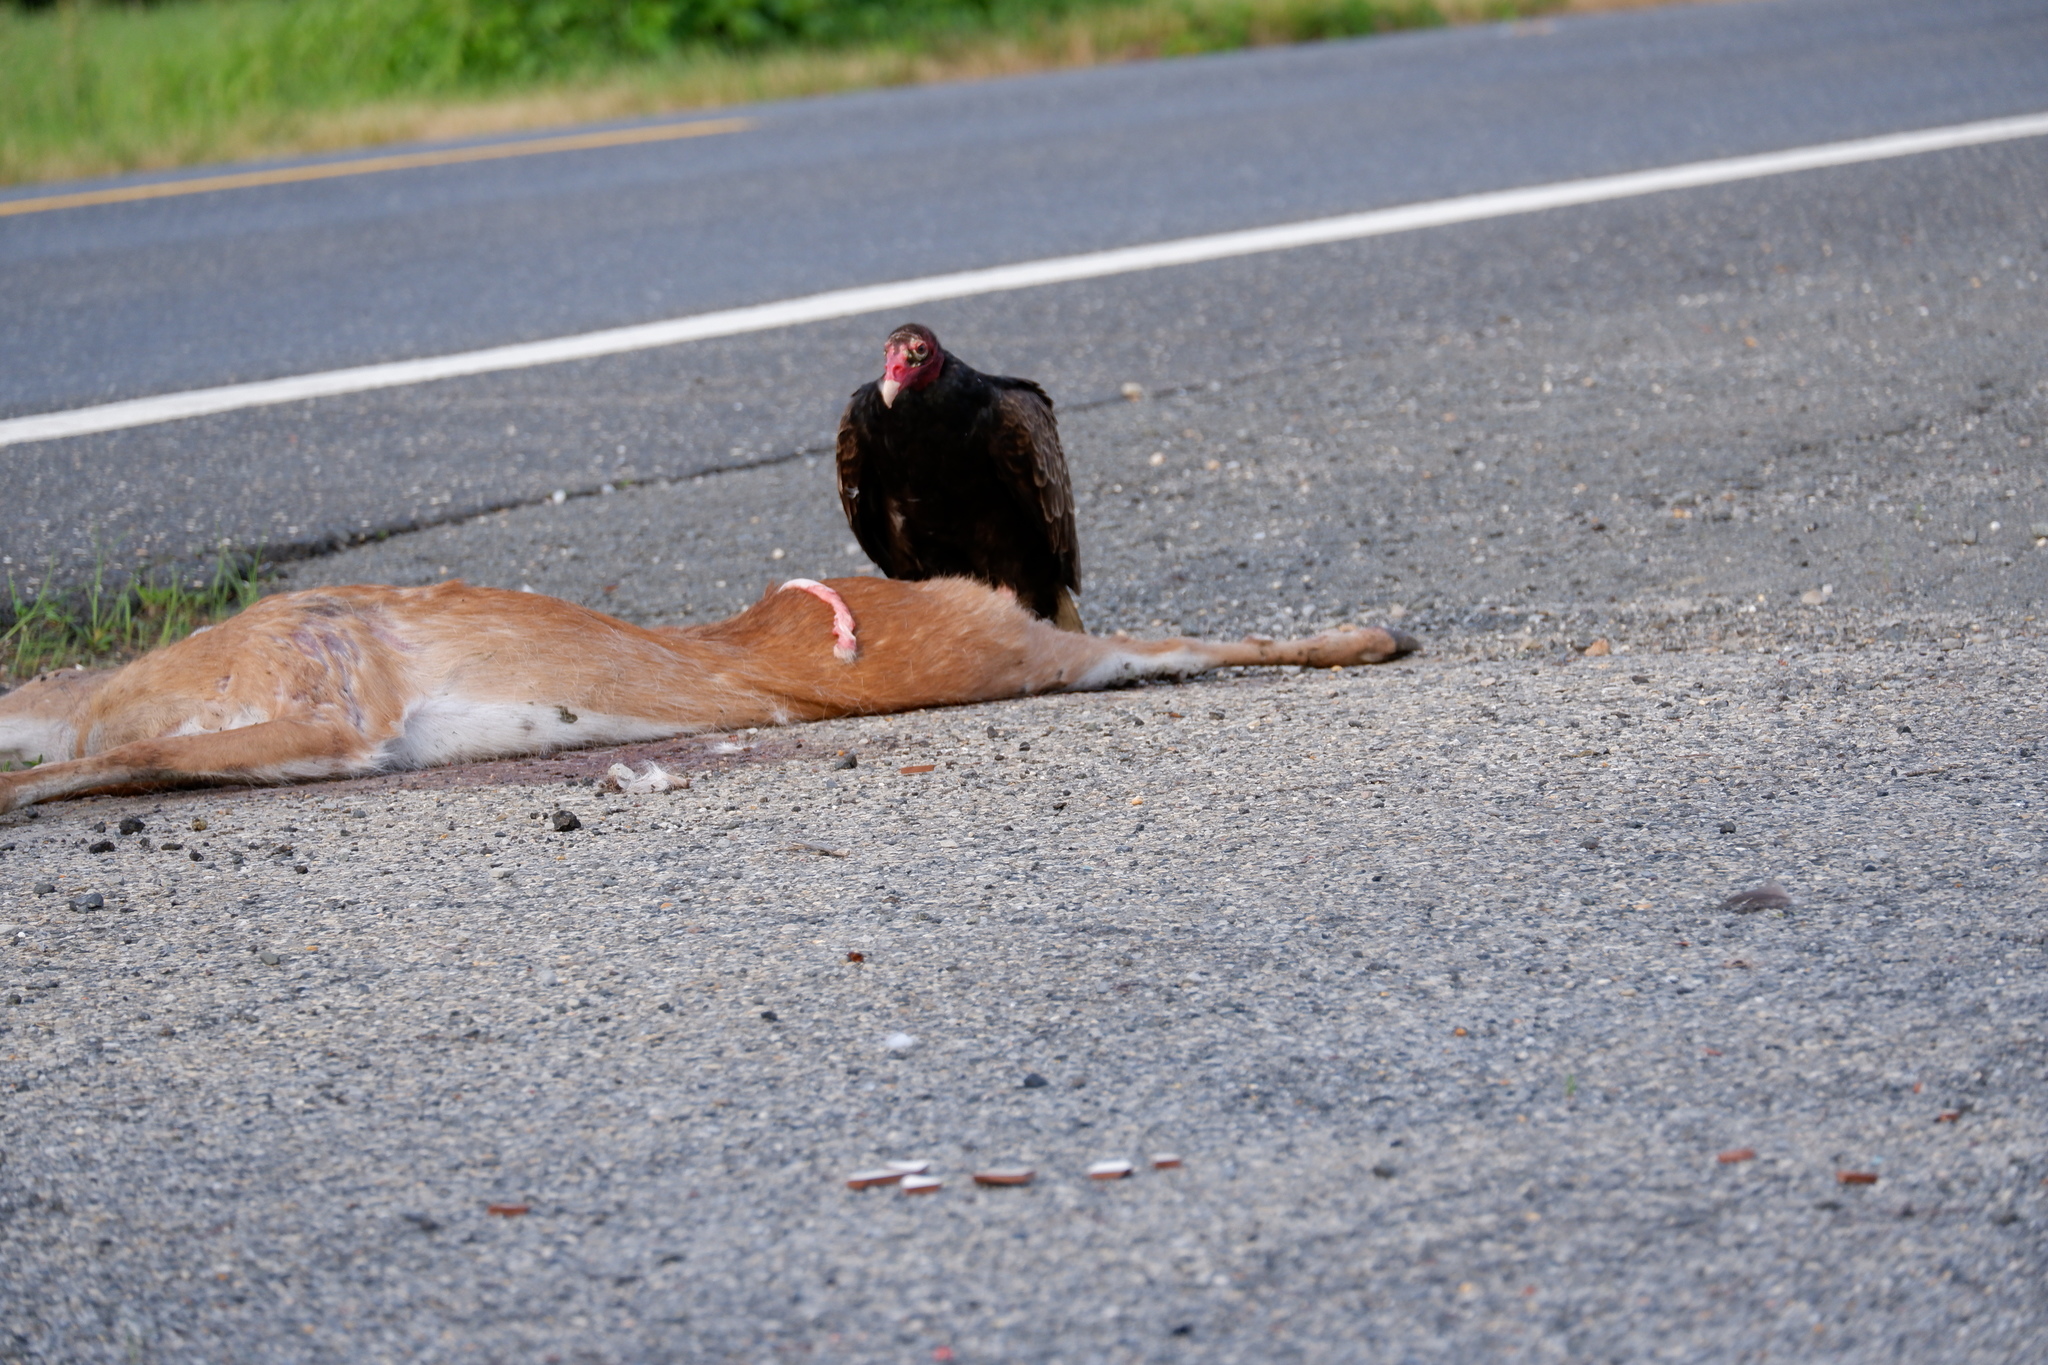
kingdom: Animalia
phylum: Chordata
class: Aves
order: Accipitriformes
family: Cathartidae
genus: Cathartes
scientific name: Cathartes aura
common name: Turkey vulture
